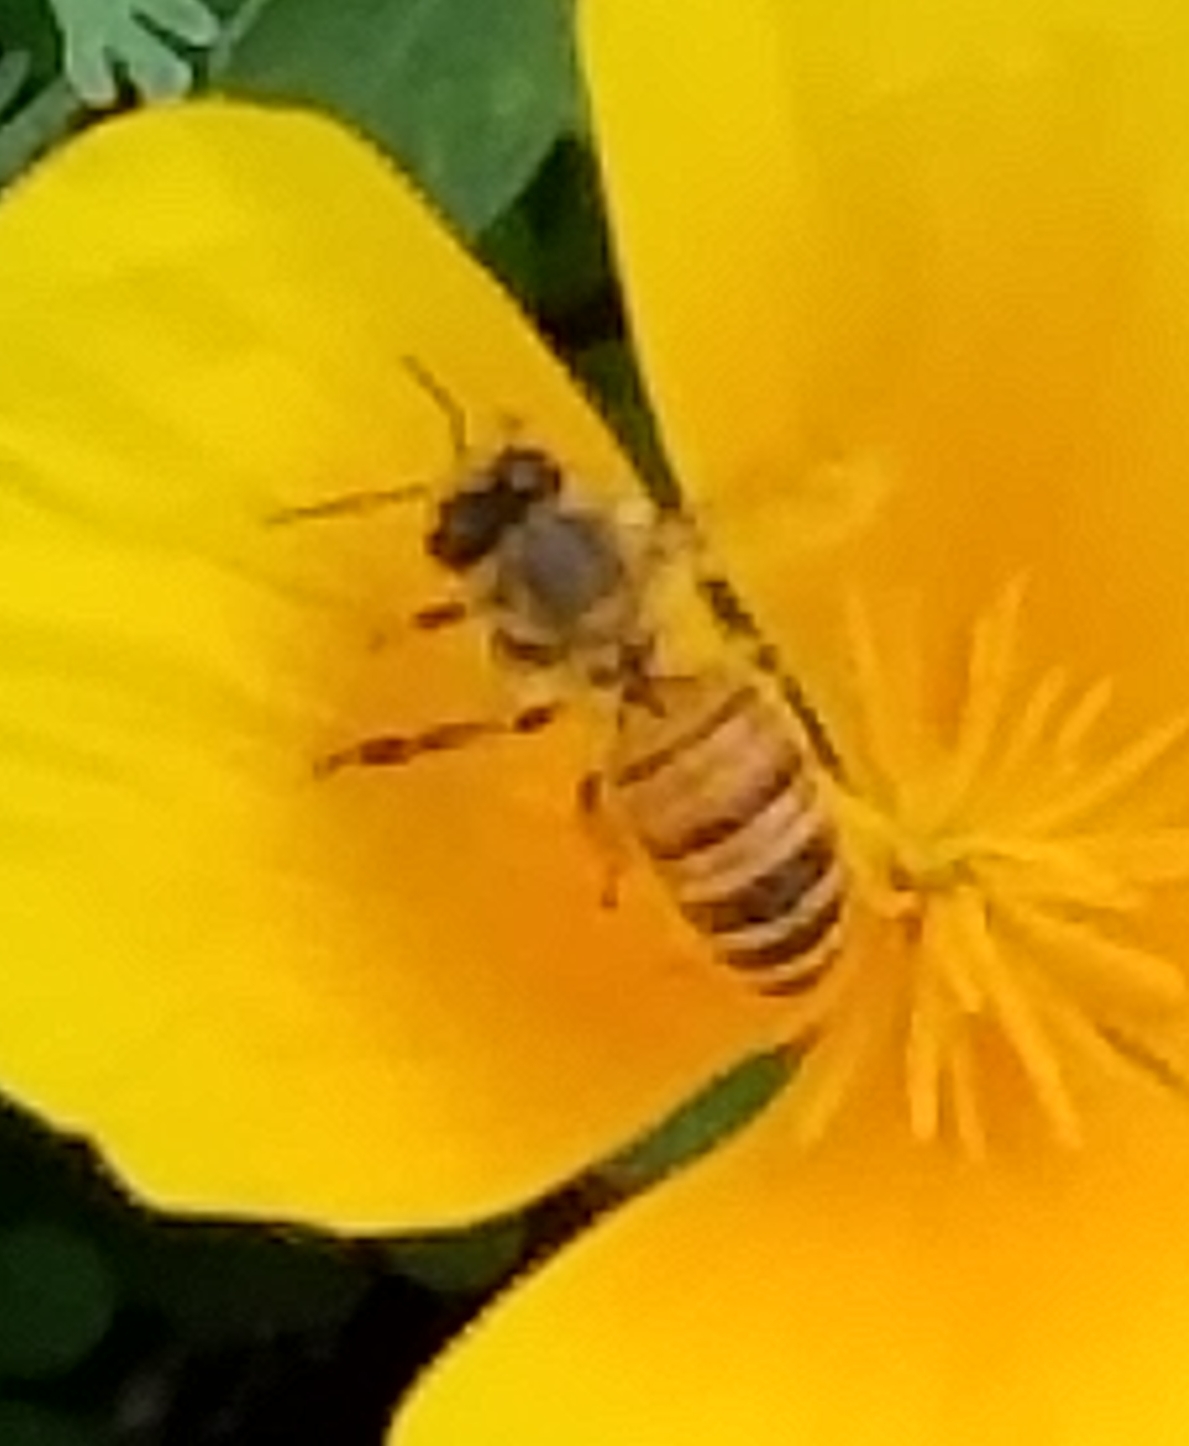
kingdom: Animalia
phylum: Arthropoda
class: Insecta
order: Hymenoptera
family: Apidae
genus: Apis
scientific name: Apis mellifera
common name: Honey bee
